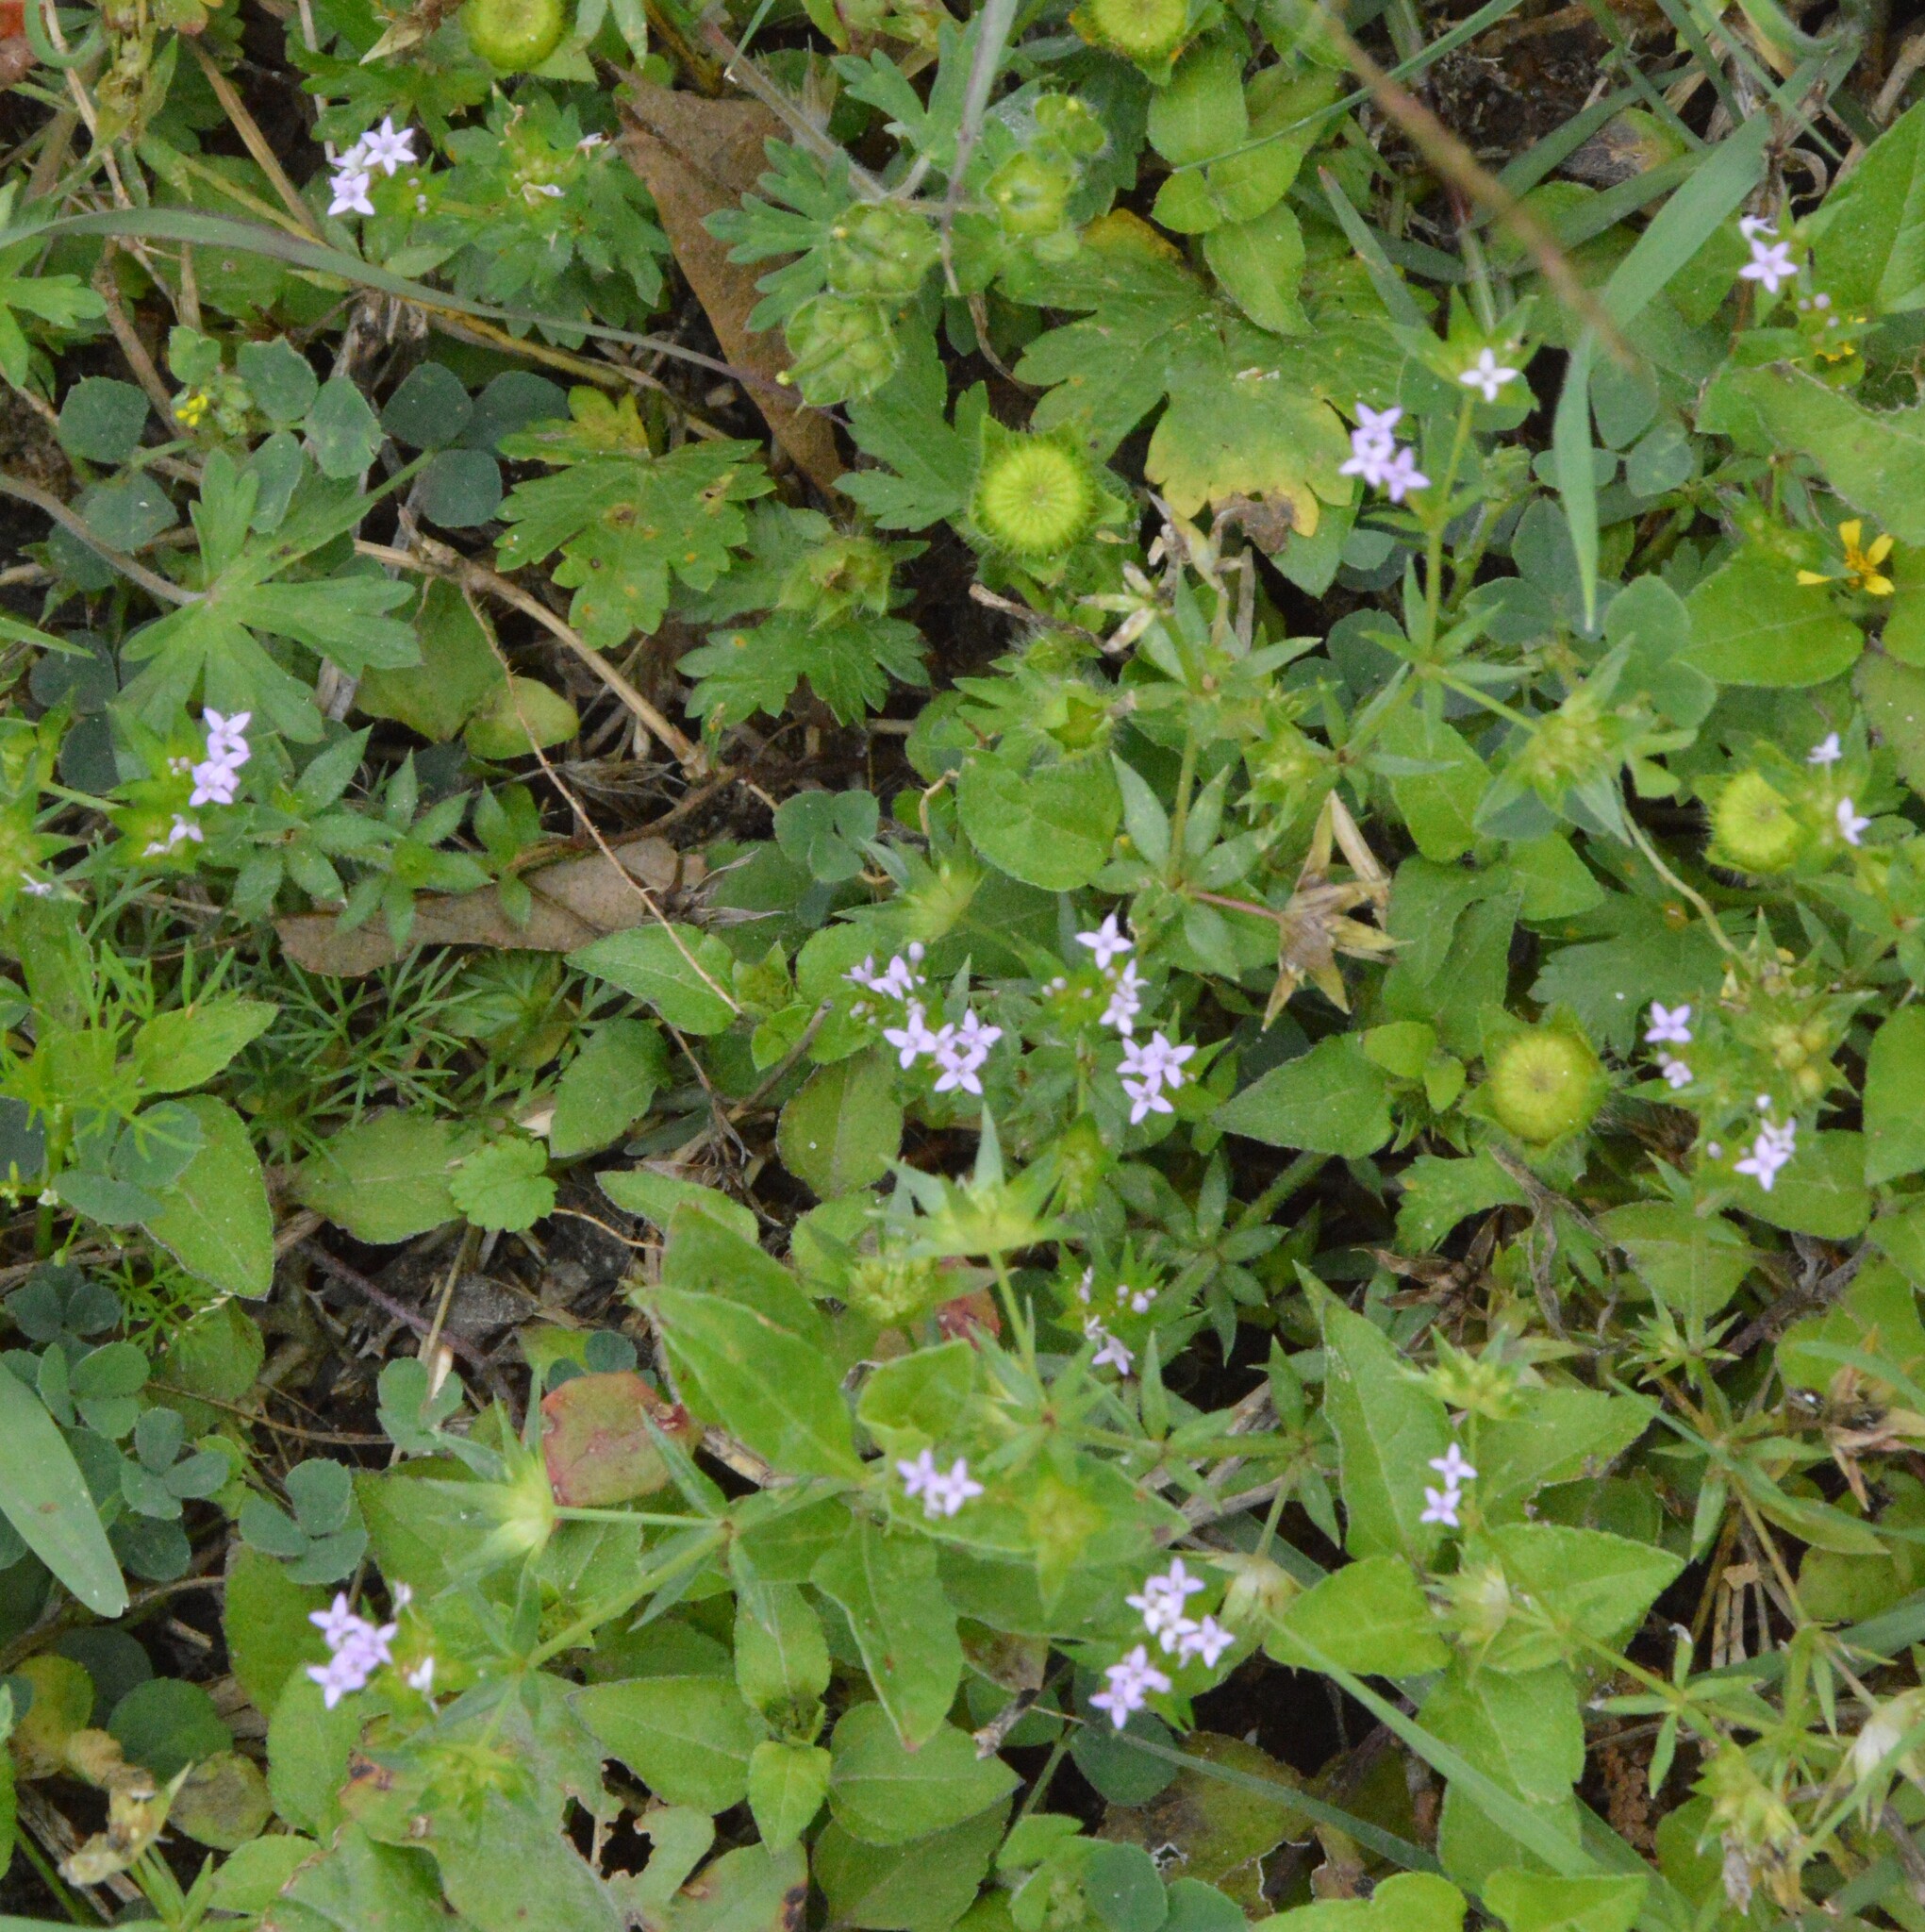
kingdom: Plantae
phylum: Tracheophyta
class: Magnoliopsida
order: Gentianales
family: Rubiaceae
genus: Sherardia
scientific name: Sherardia arvensis
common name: Field madder
